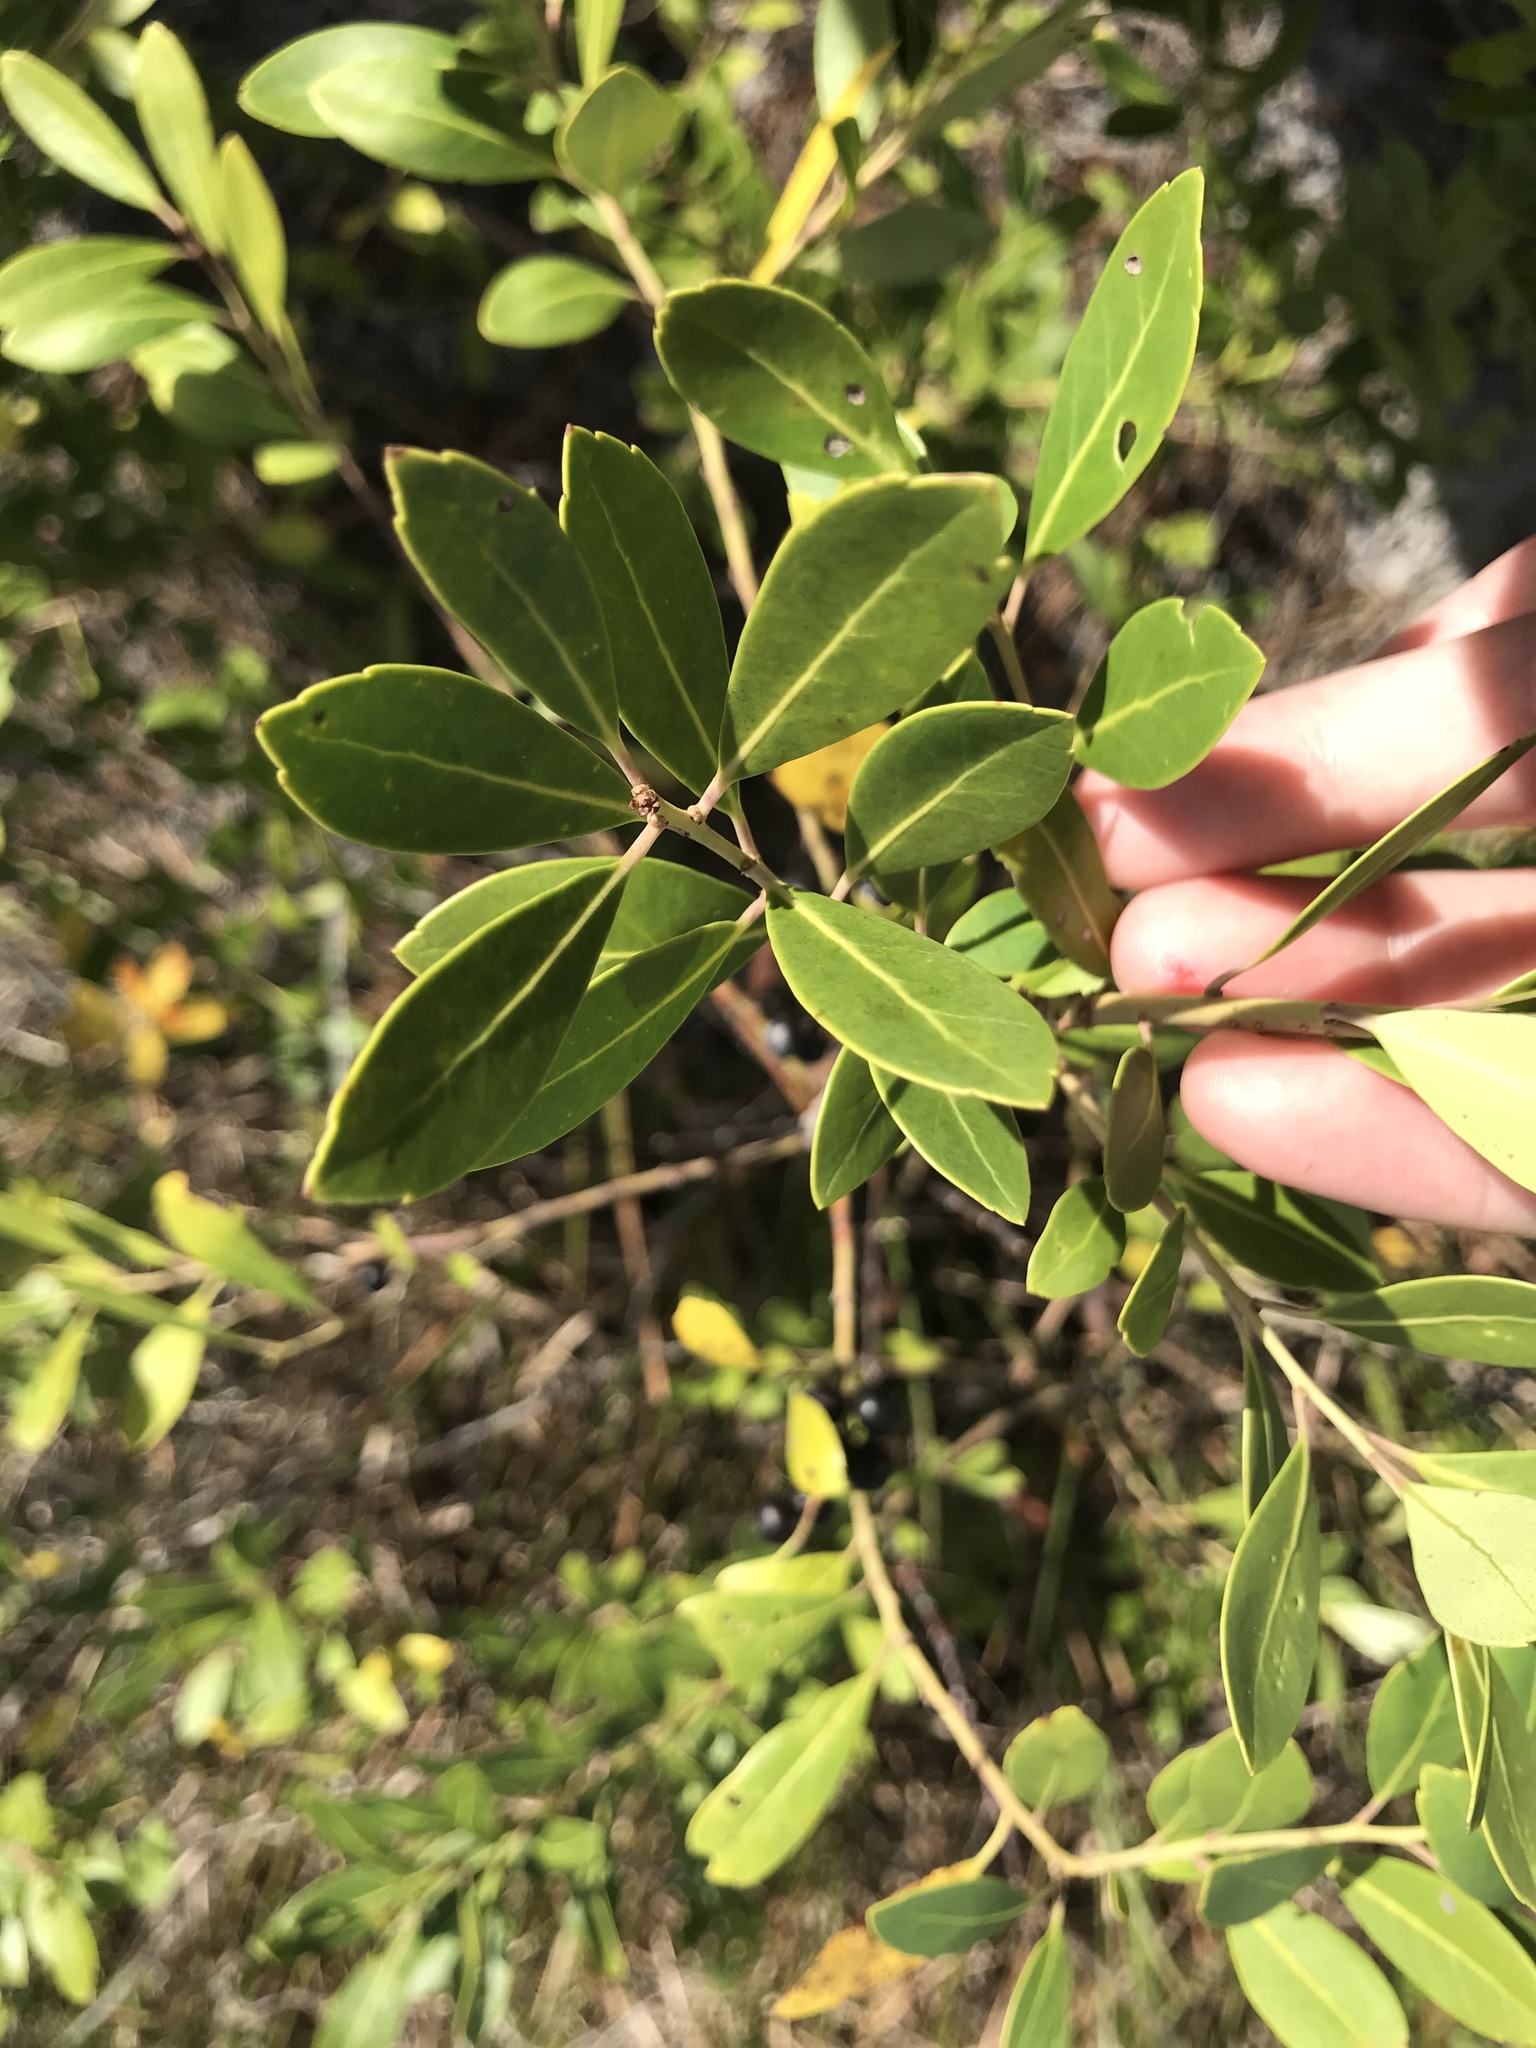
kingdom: Plantae
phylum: Tracheophyta
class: Magnoliopsida
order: Aquifoliales
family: Aquifoliaceae
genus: Ilex
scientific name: Ilex glabra
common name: Bitter gallberry
